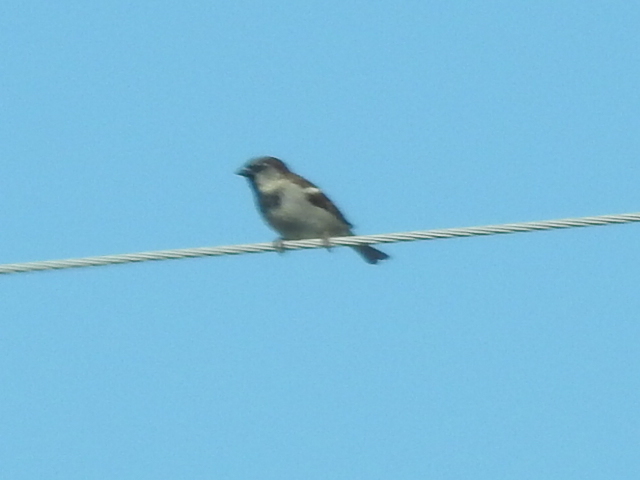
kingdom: Animalia
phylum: Chordata
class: Aves
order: Passeriformes
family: Passeridae
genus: Passer
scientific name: Passer domesticus
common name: House sparrow
